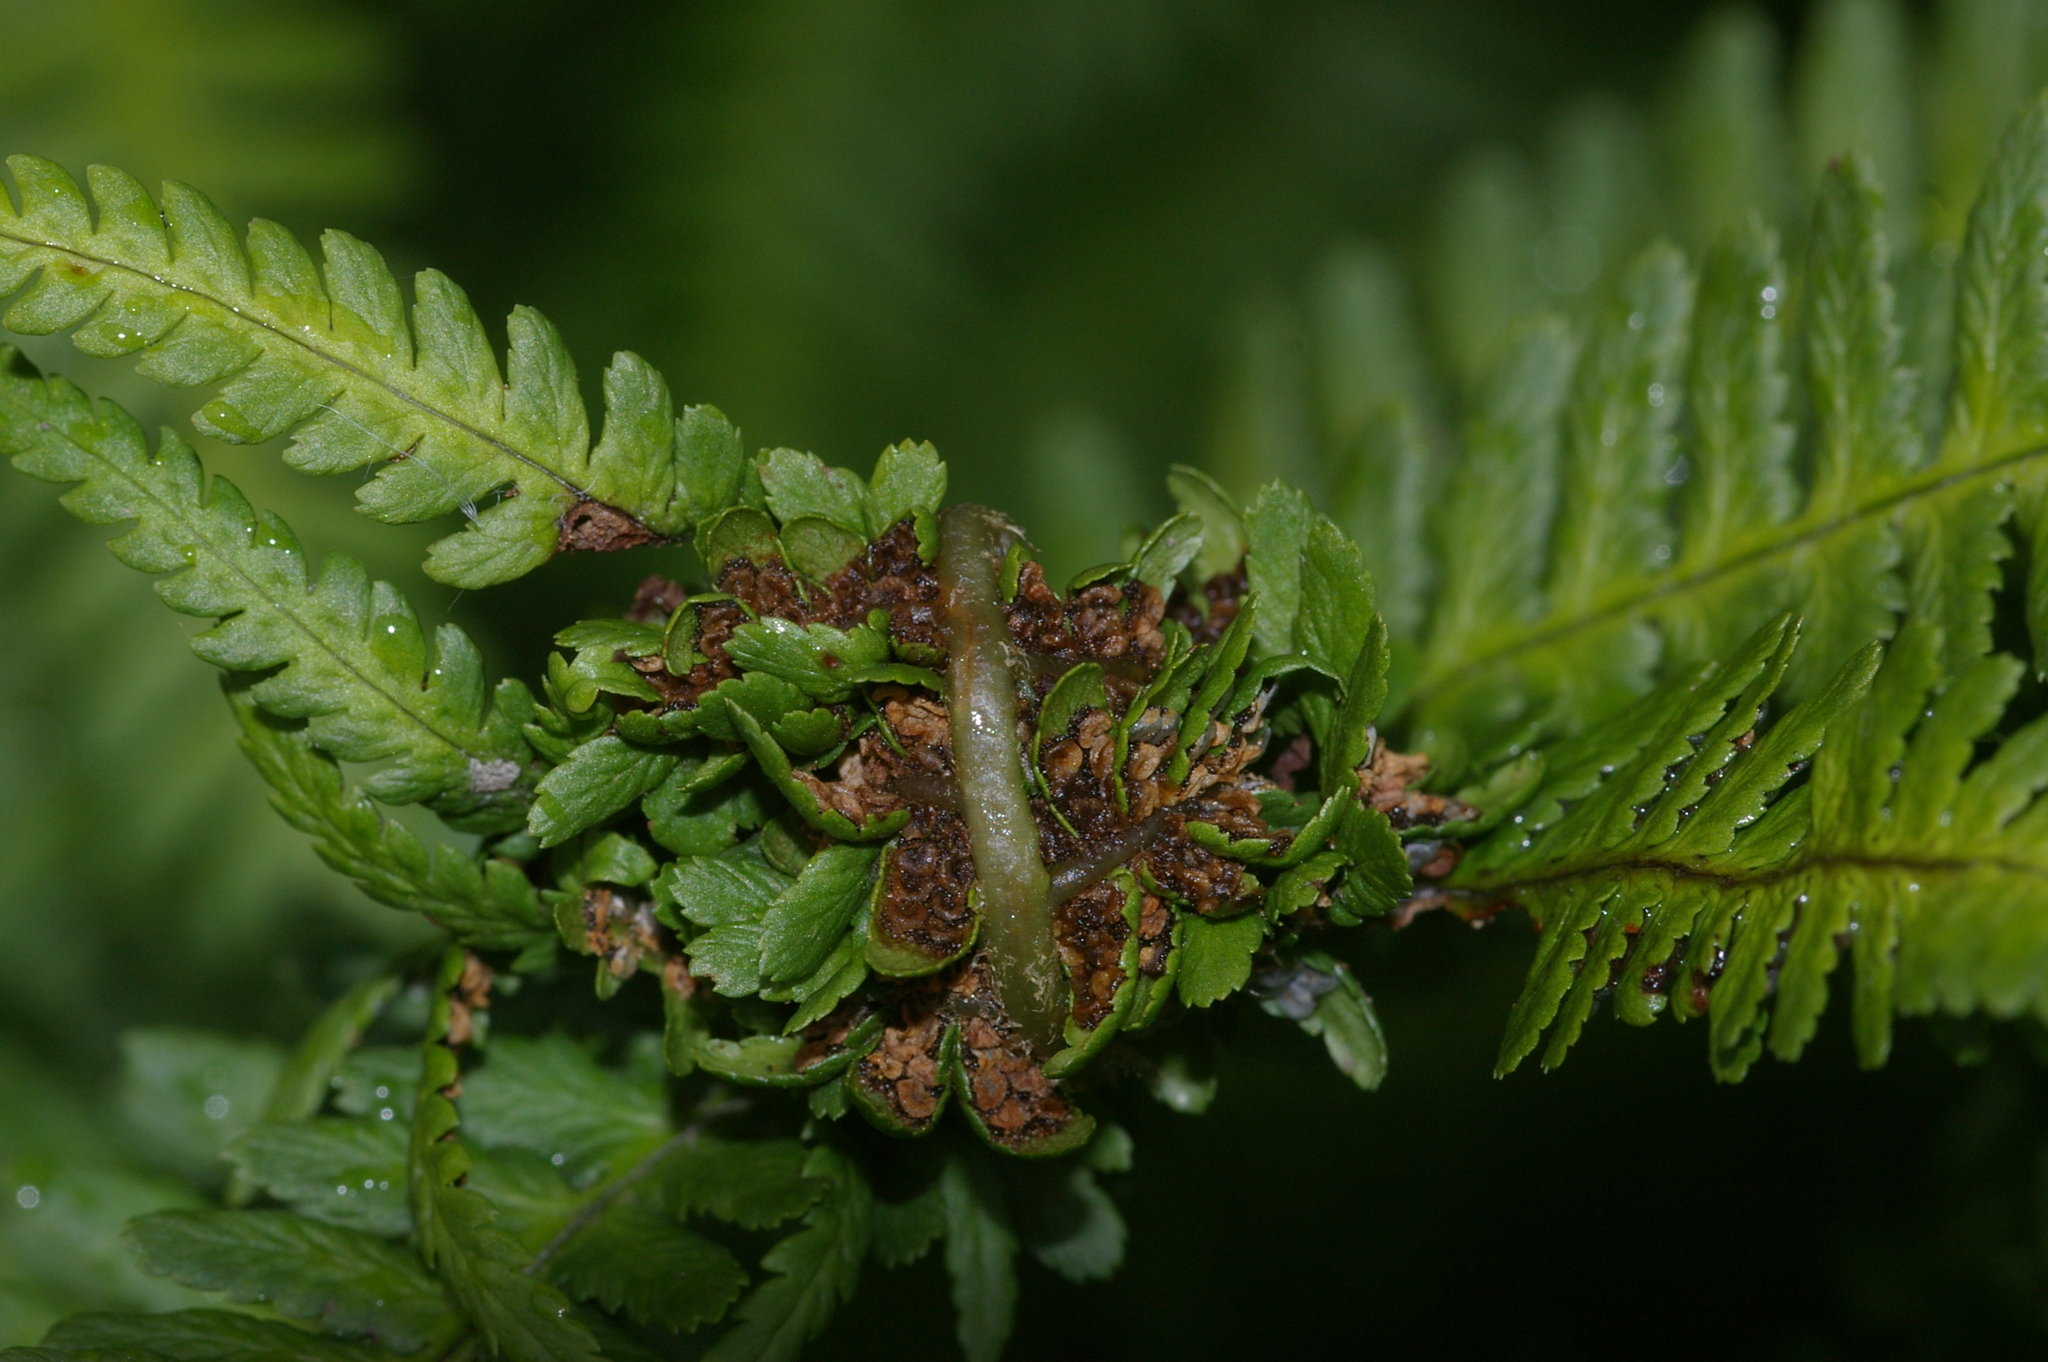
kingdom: Animalia
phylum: Arthropoda
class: Insecta
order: Diptera
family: Anthomyiidae
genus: Chirosia
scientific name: Chirosia betuleti
